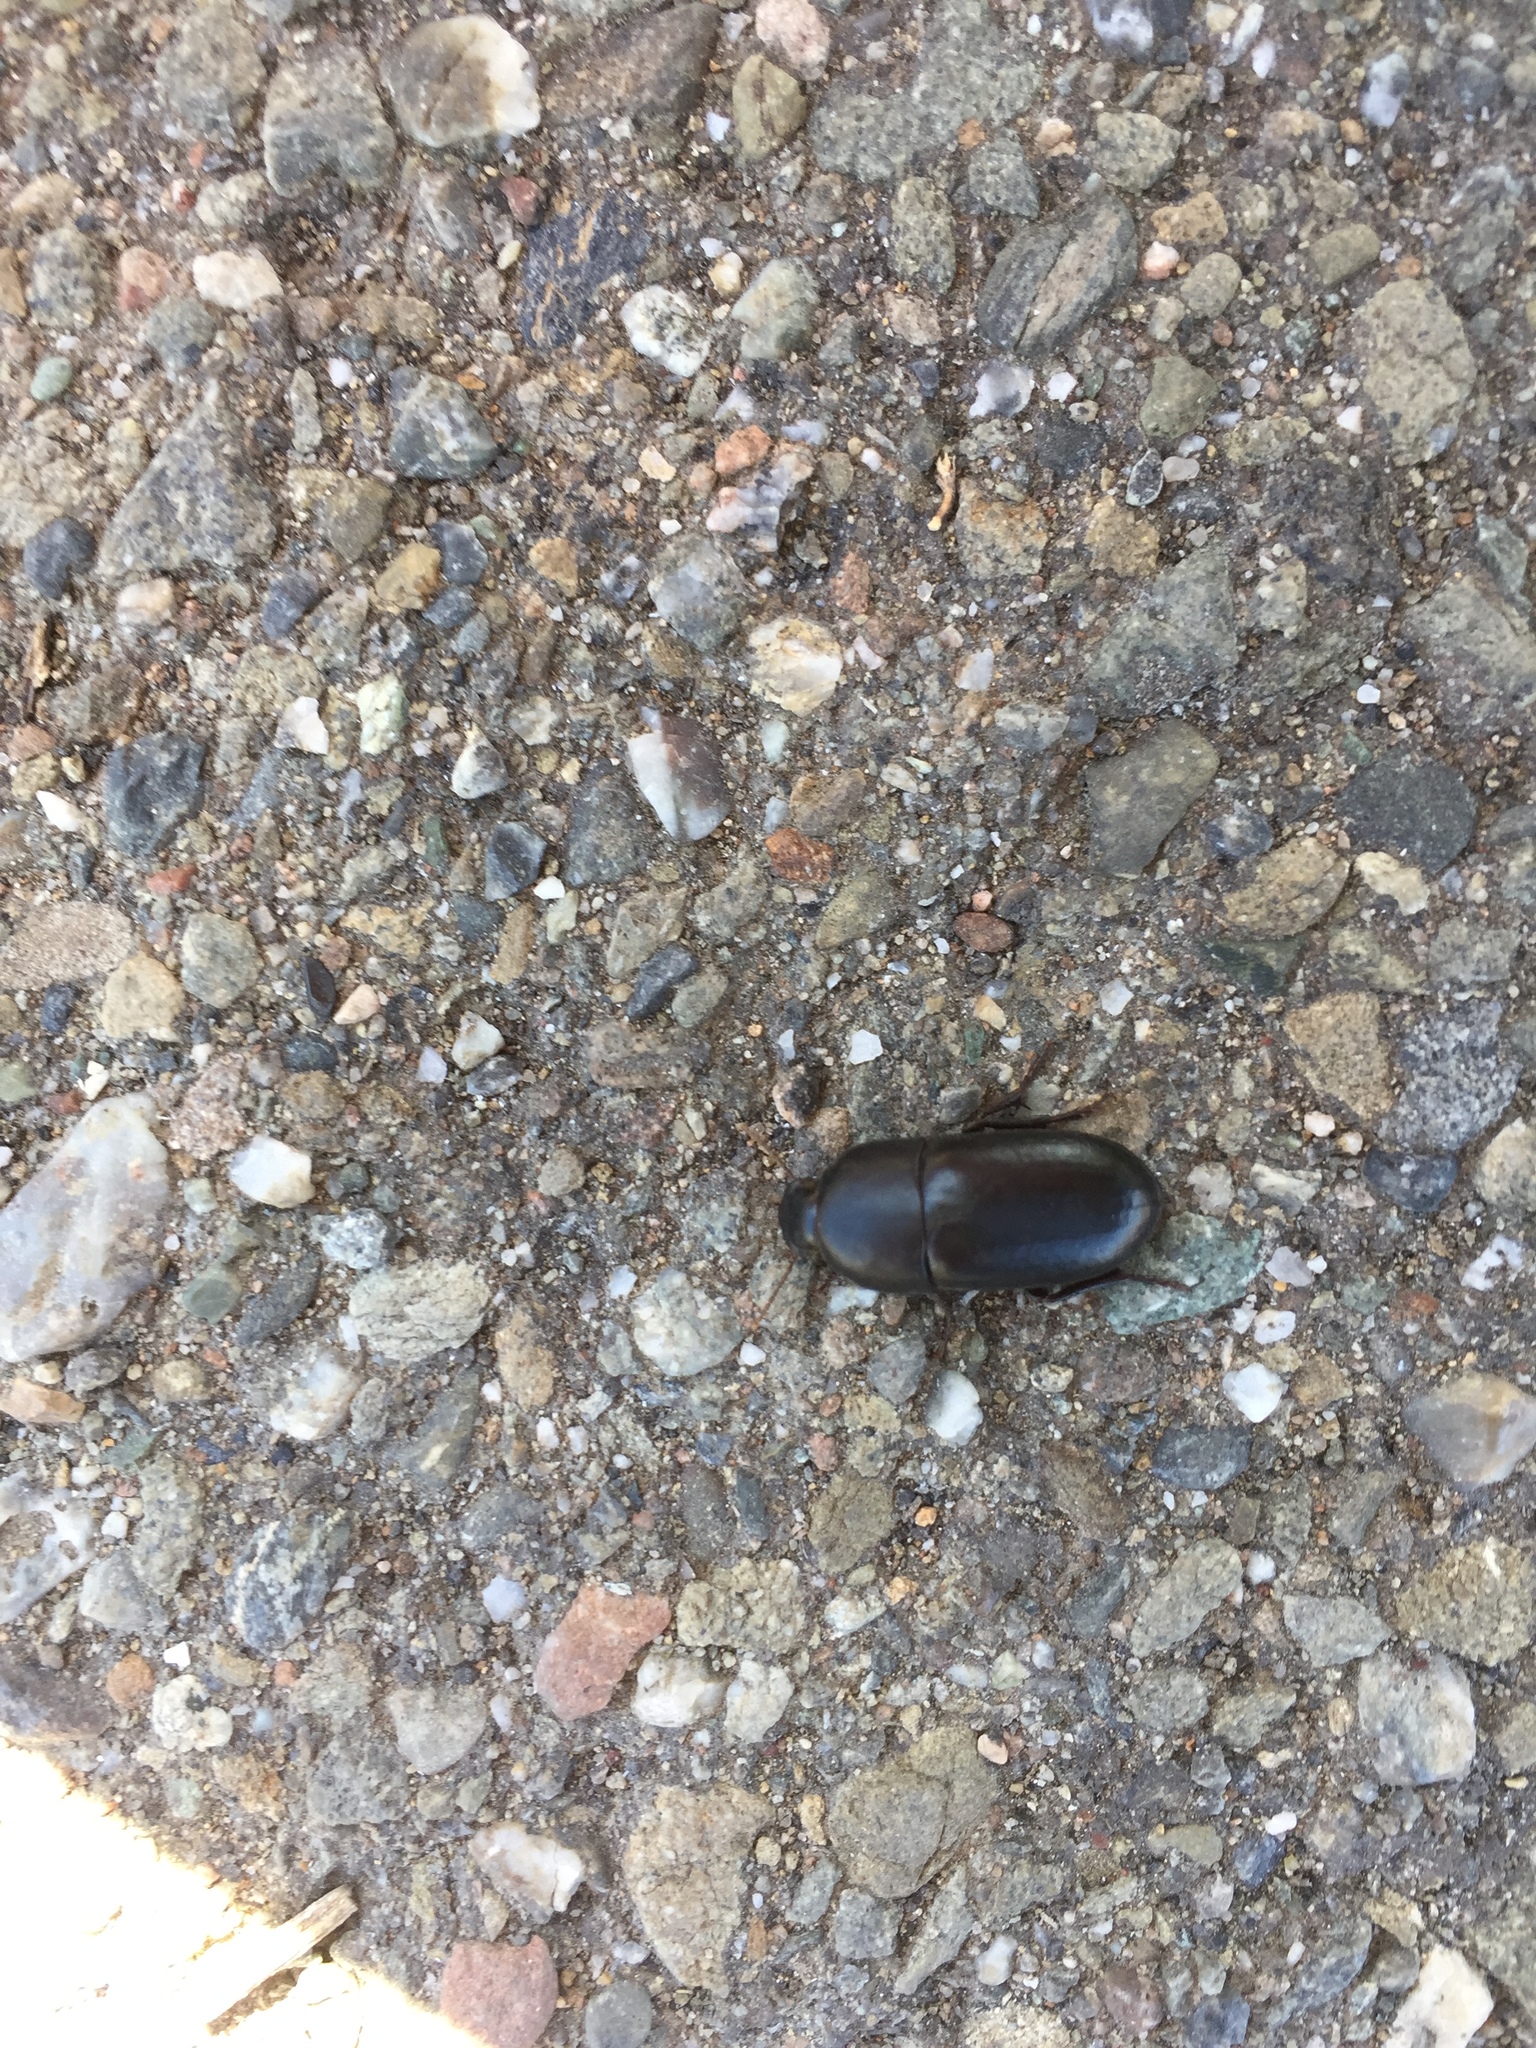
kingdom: Animalia
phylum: Arthropoda
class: Insecta
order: Coleoptera
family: Tenebrionidae
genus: Coniontis
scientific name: Coniontis
